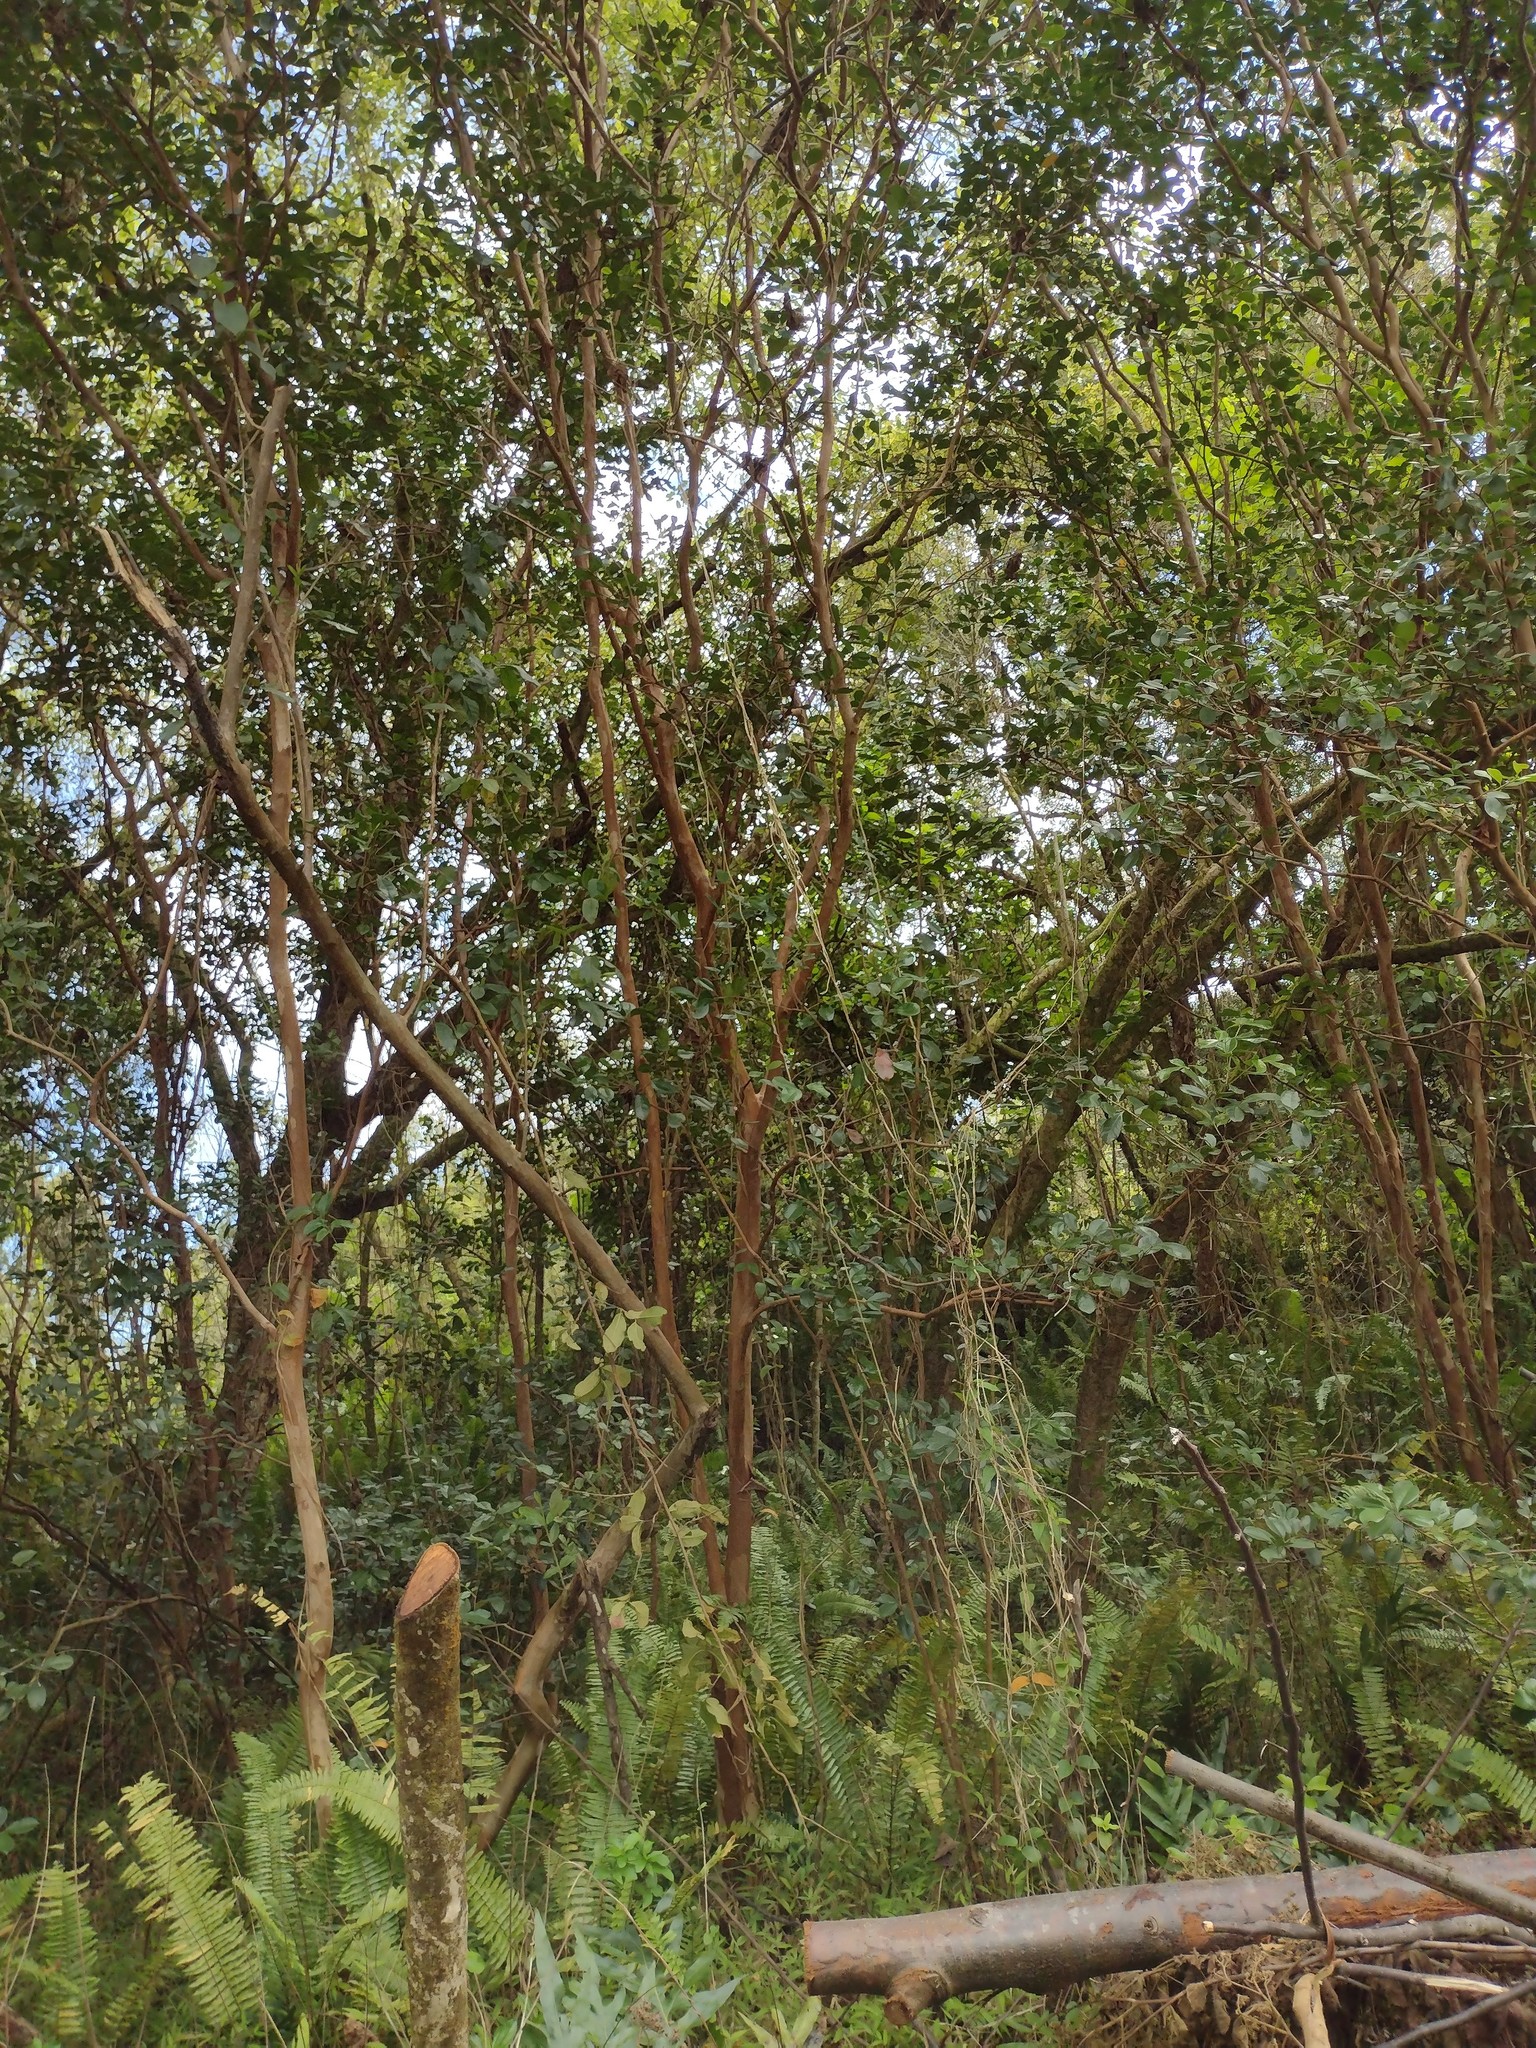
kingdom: Plantae
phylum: Tracheophyta
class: Magnoliopsida
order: Myrtales
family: Myrtaceae
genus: Psidium
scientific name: Psidium cattleianum
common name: Strawberry guava
